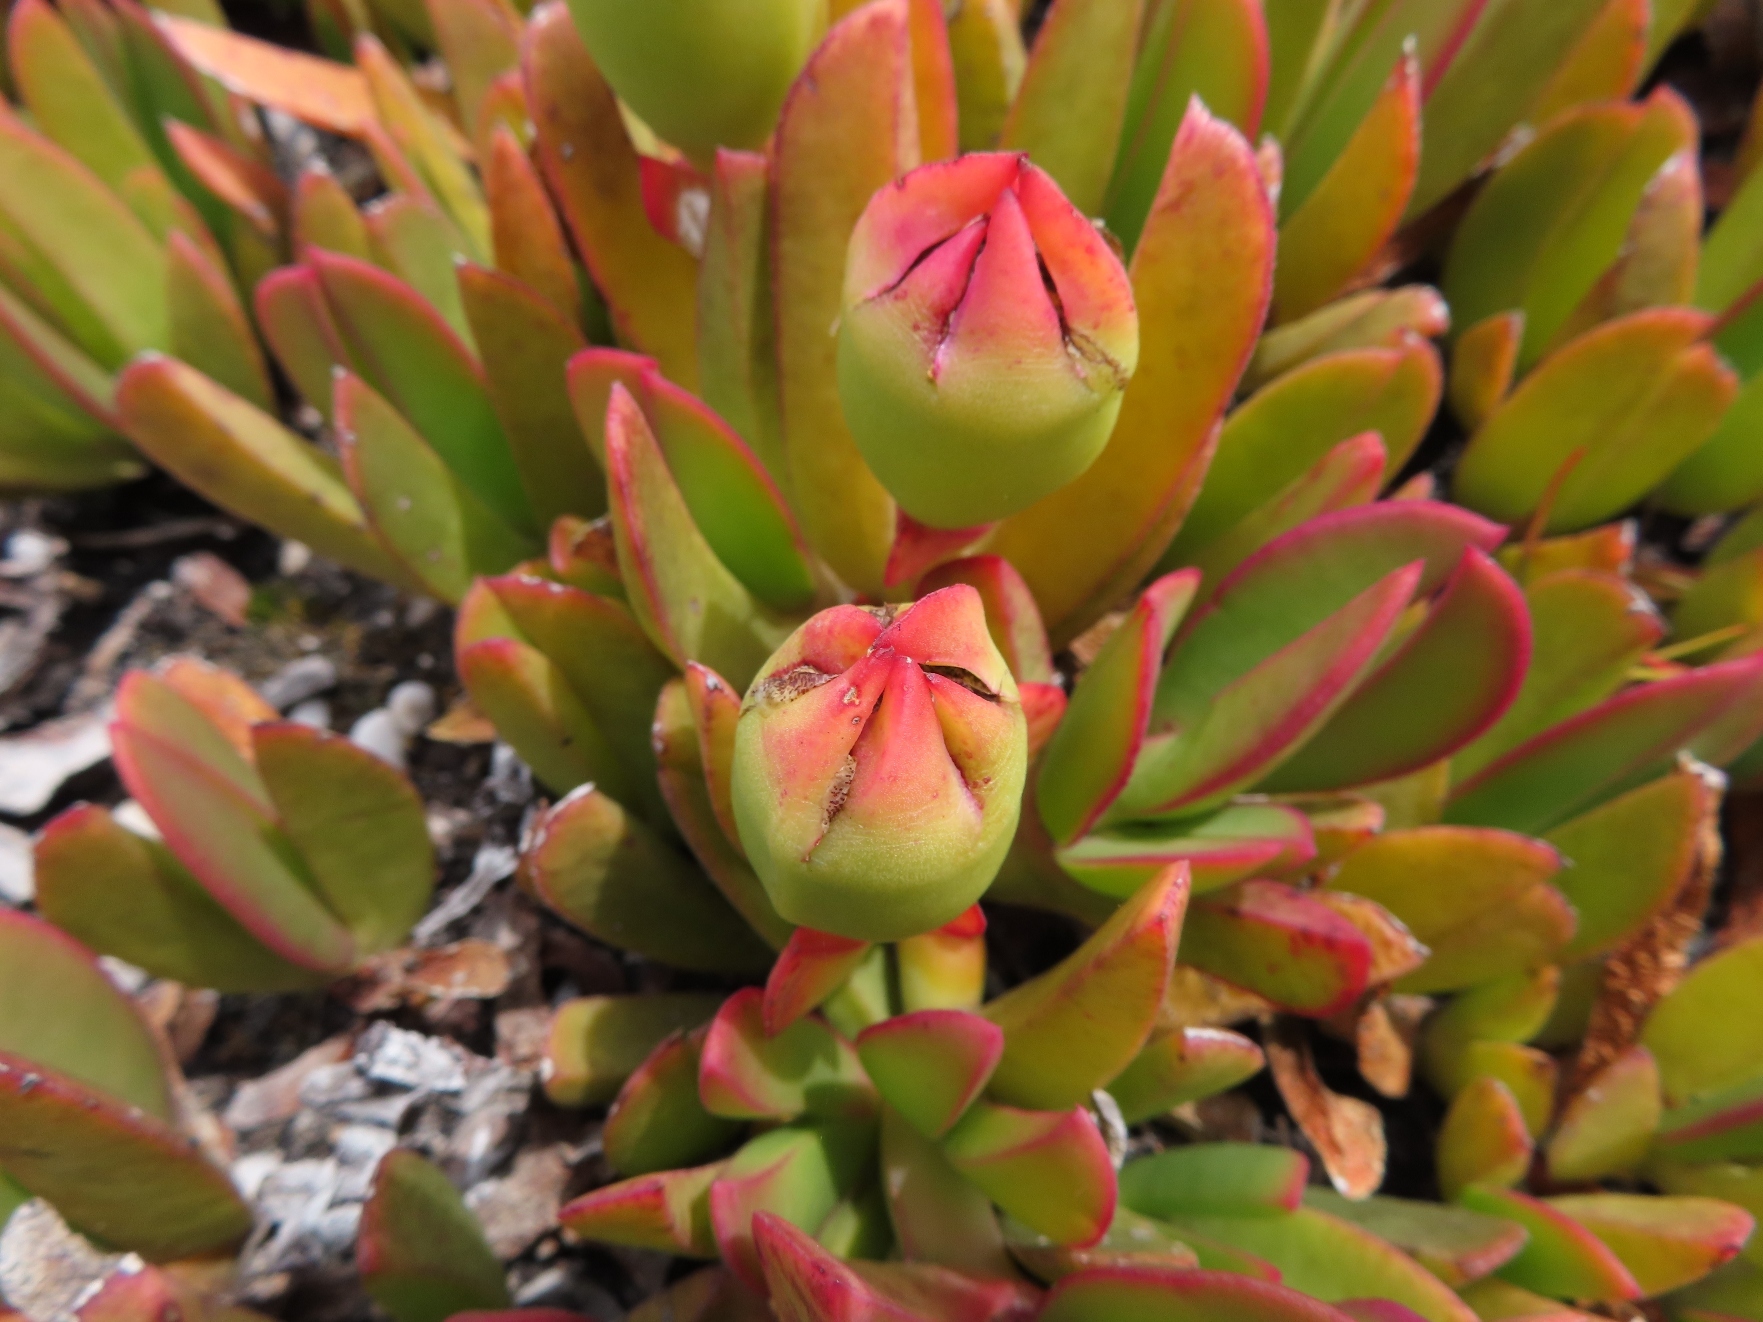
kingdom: Plantae
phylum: Tracheophyta
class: Magnoliopsida
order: Caryophyllales
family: Aizoaceae
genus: Carpobrotus
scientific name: Carpobrotus mellei
